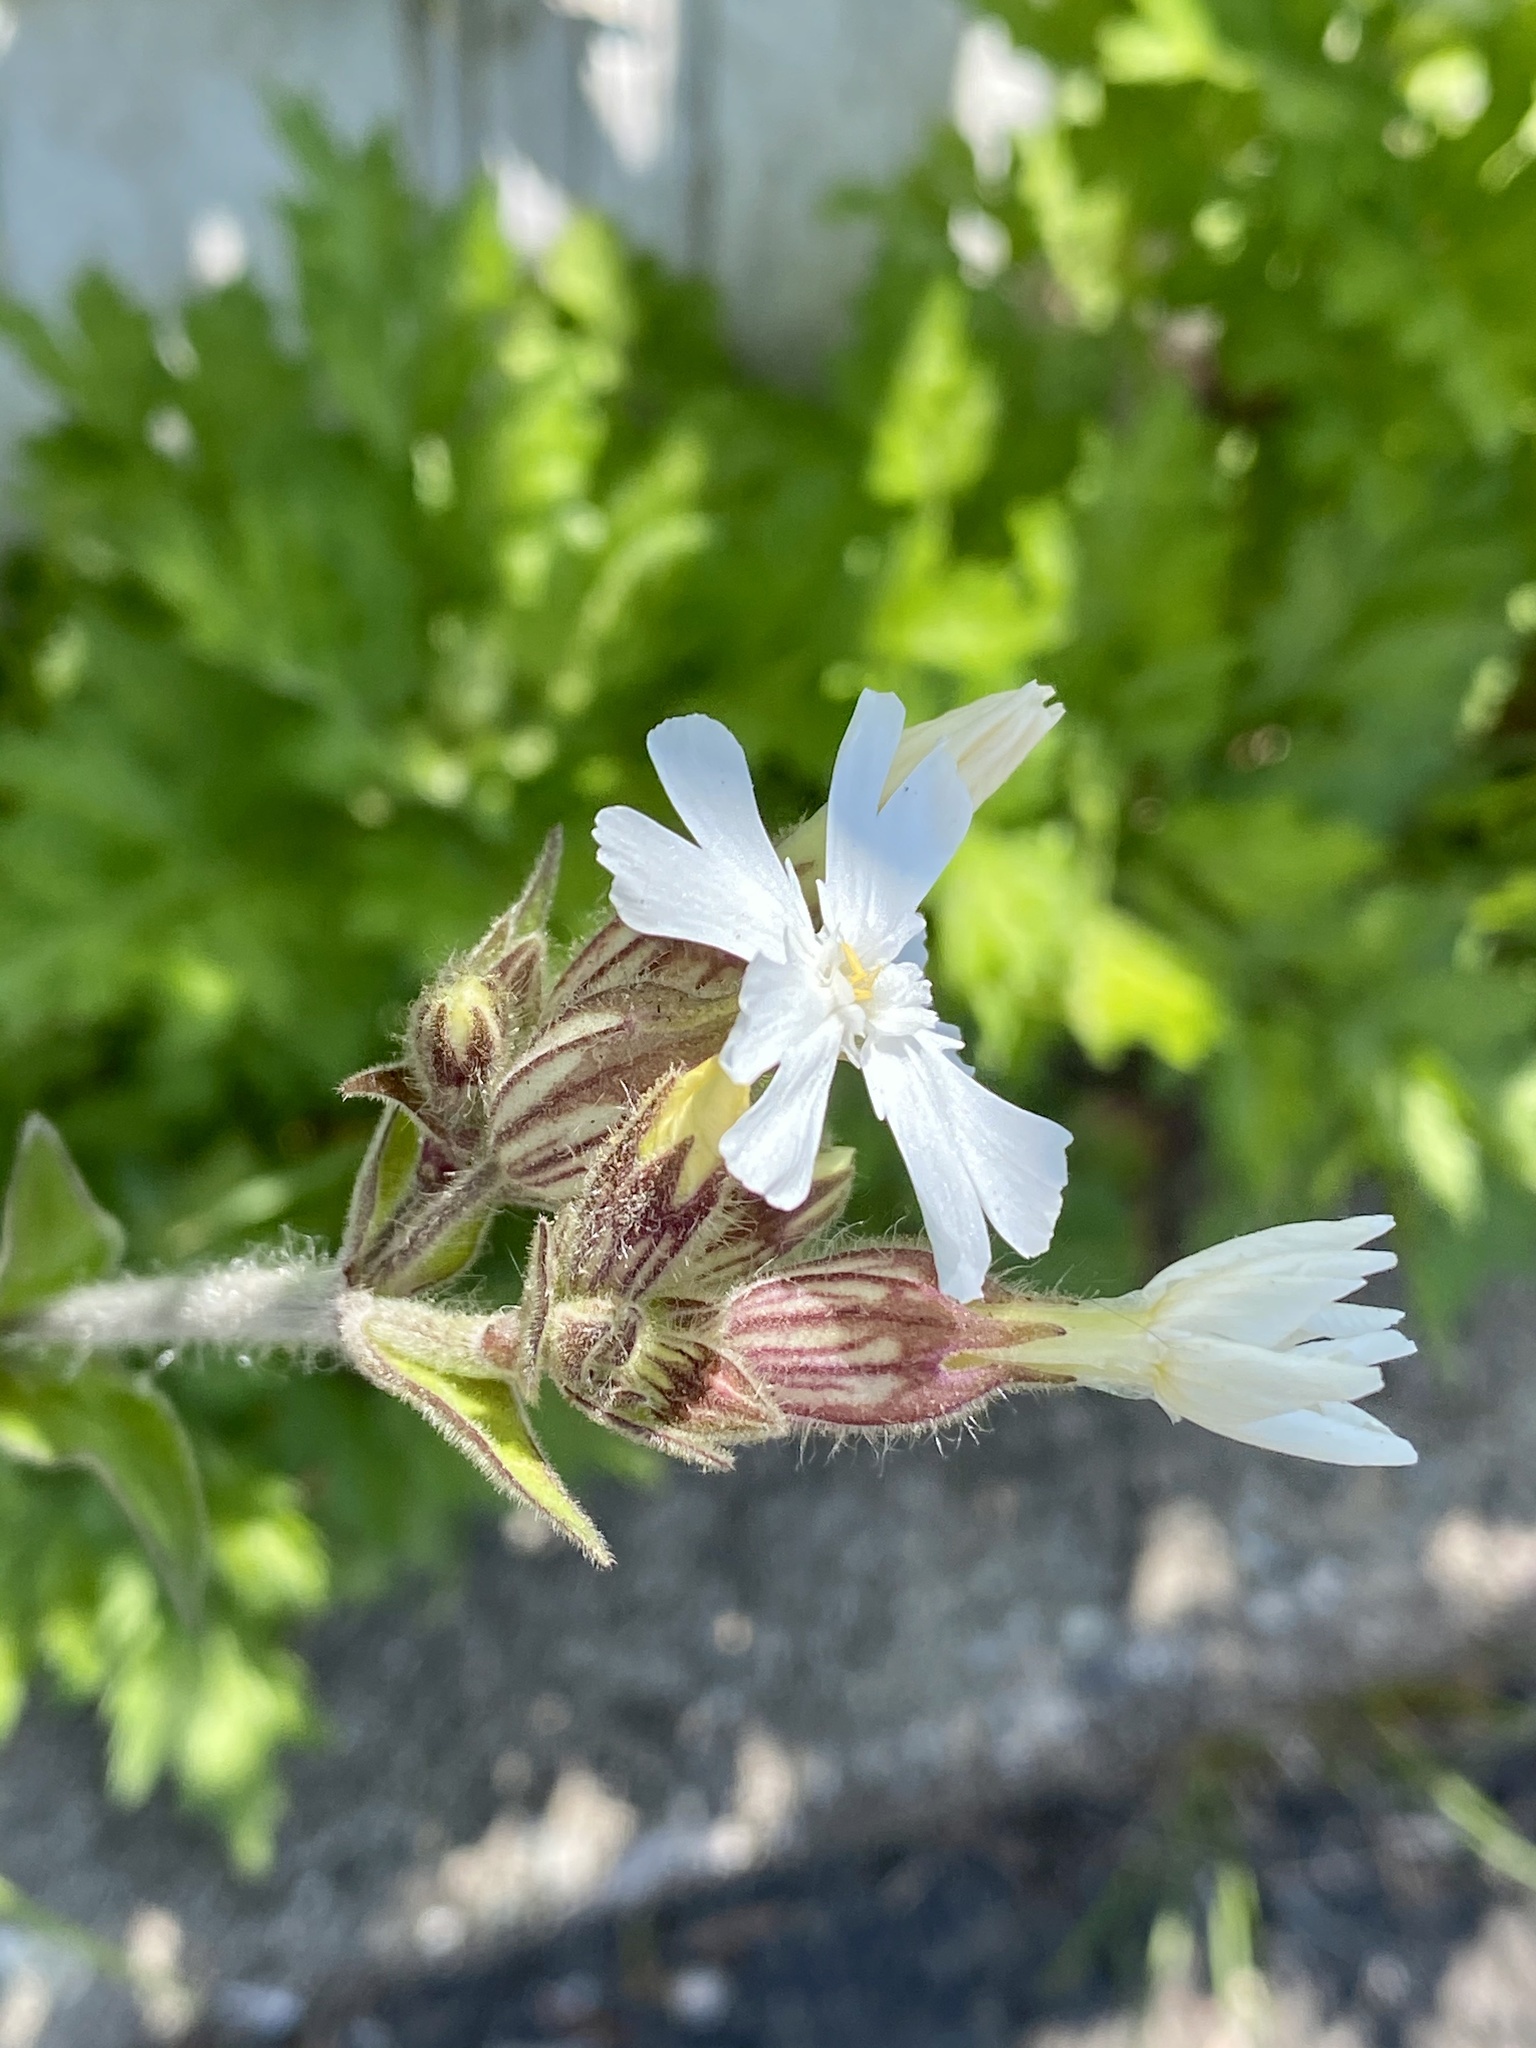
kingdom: Plantae
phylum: Tracheophyta
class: Magnoliopsida
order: Caryophyllales
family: Caryophyllaceae
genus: Silene
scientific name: Silene latifolia
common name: White campion
